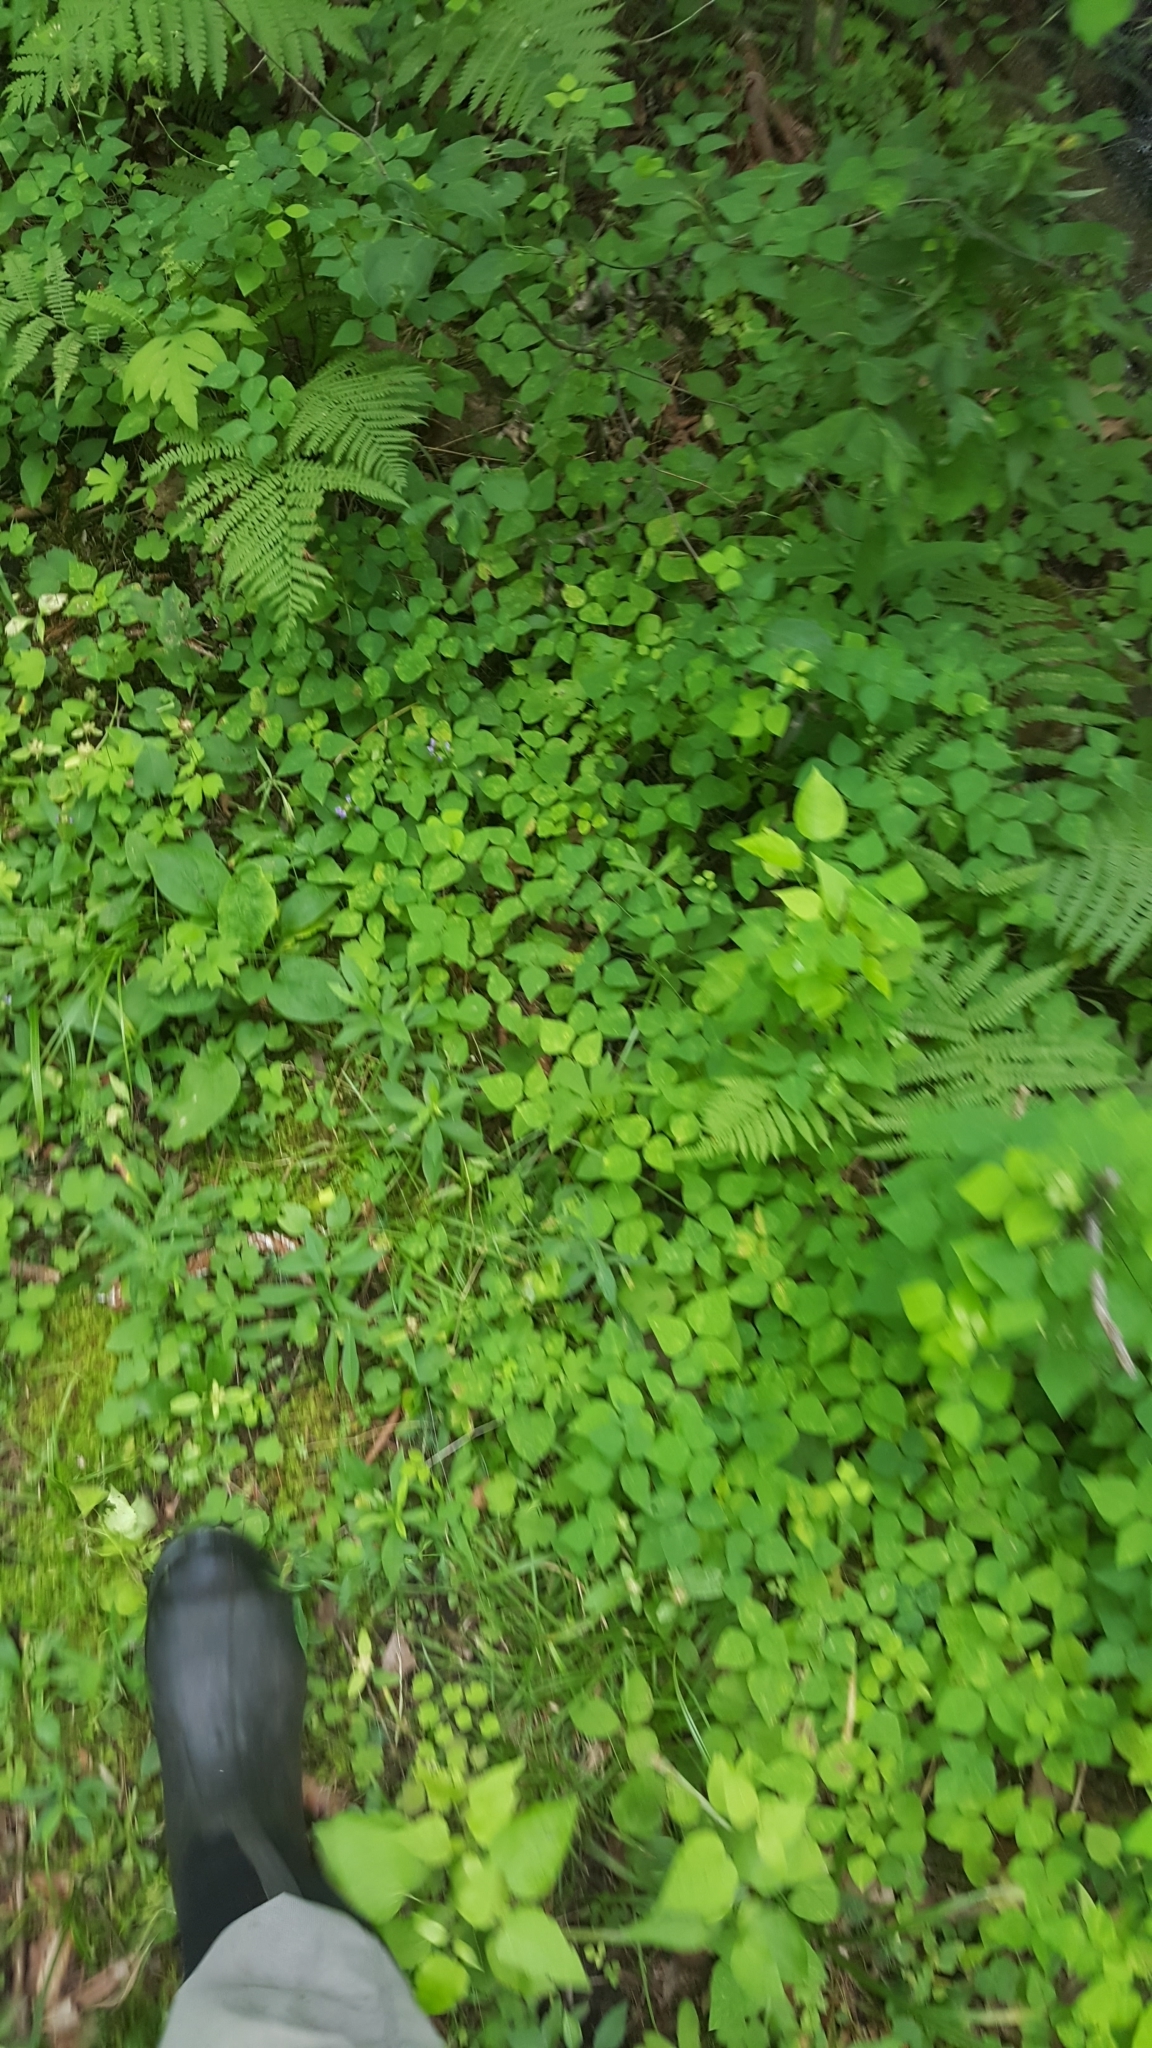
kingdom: Plantae
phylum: Tracheophyta
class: Magnoliopsida
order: Fabales
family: Fabaceae
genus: Amphicarpaea
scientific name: Amphicarpaea bracteata
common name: American hog peanut
